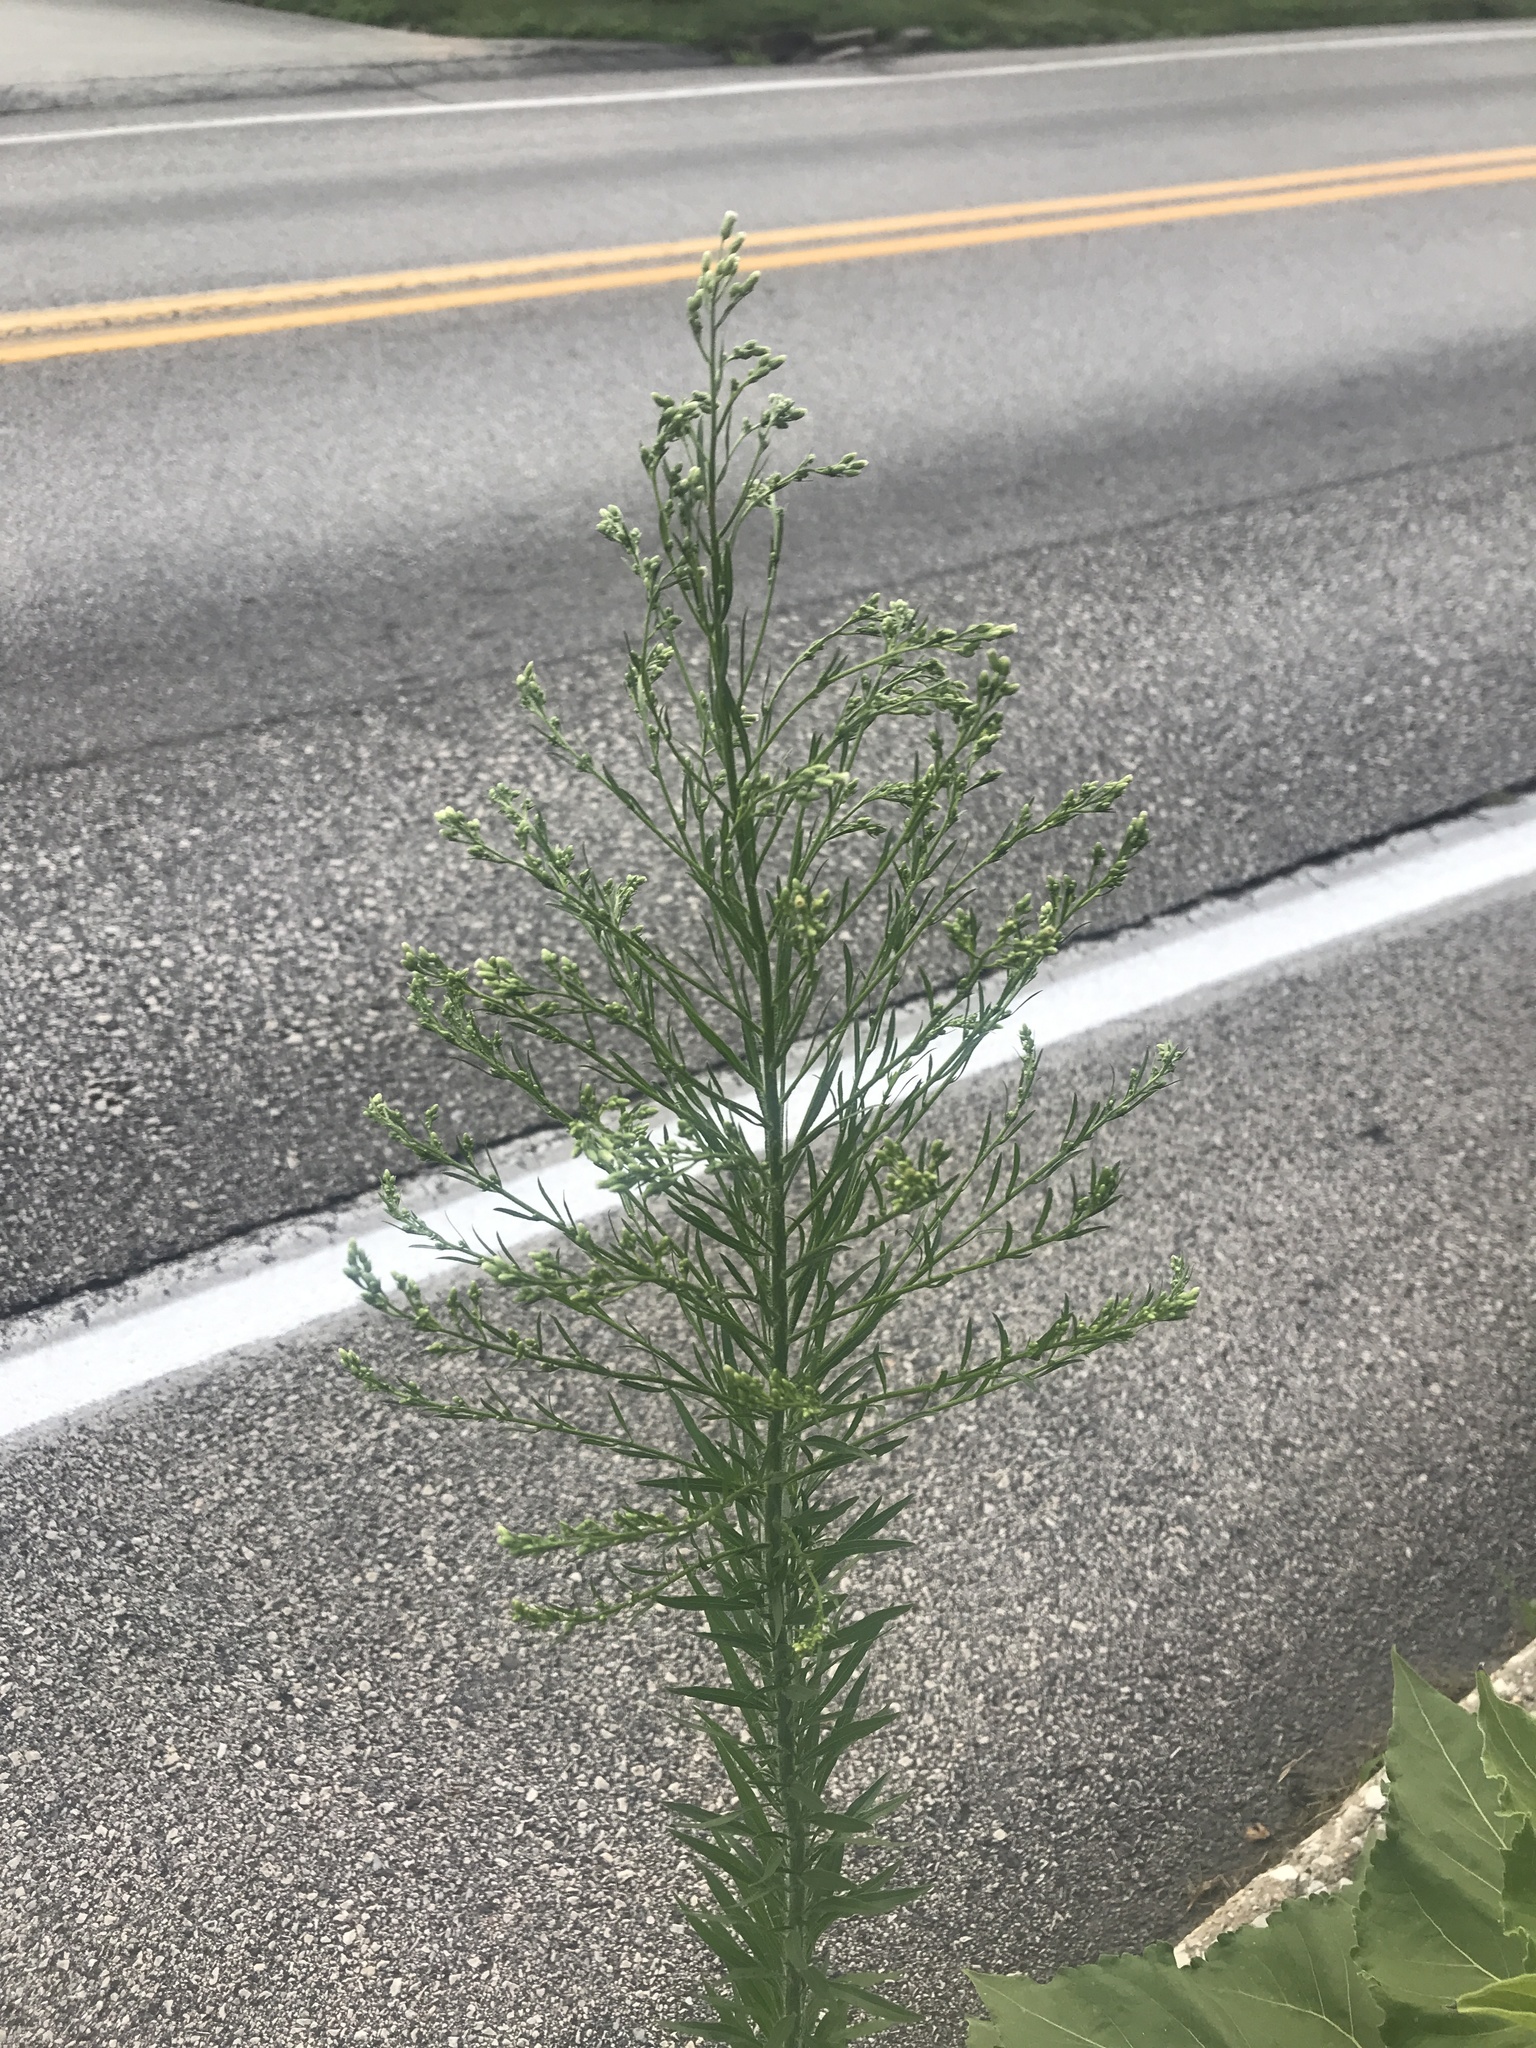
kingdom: Plantae
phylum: Tracheophyta
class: Magnoliopsida
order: Asterales
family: Asteraceae
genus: Erigeron
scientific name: Erigeron canadensis
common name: Canadian fleabane
